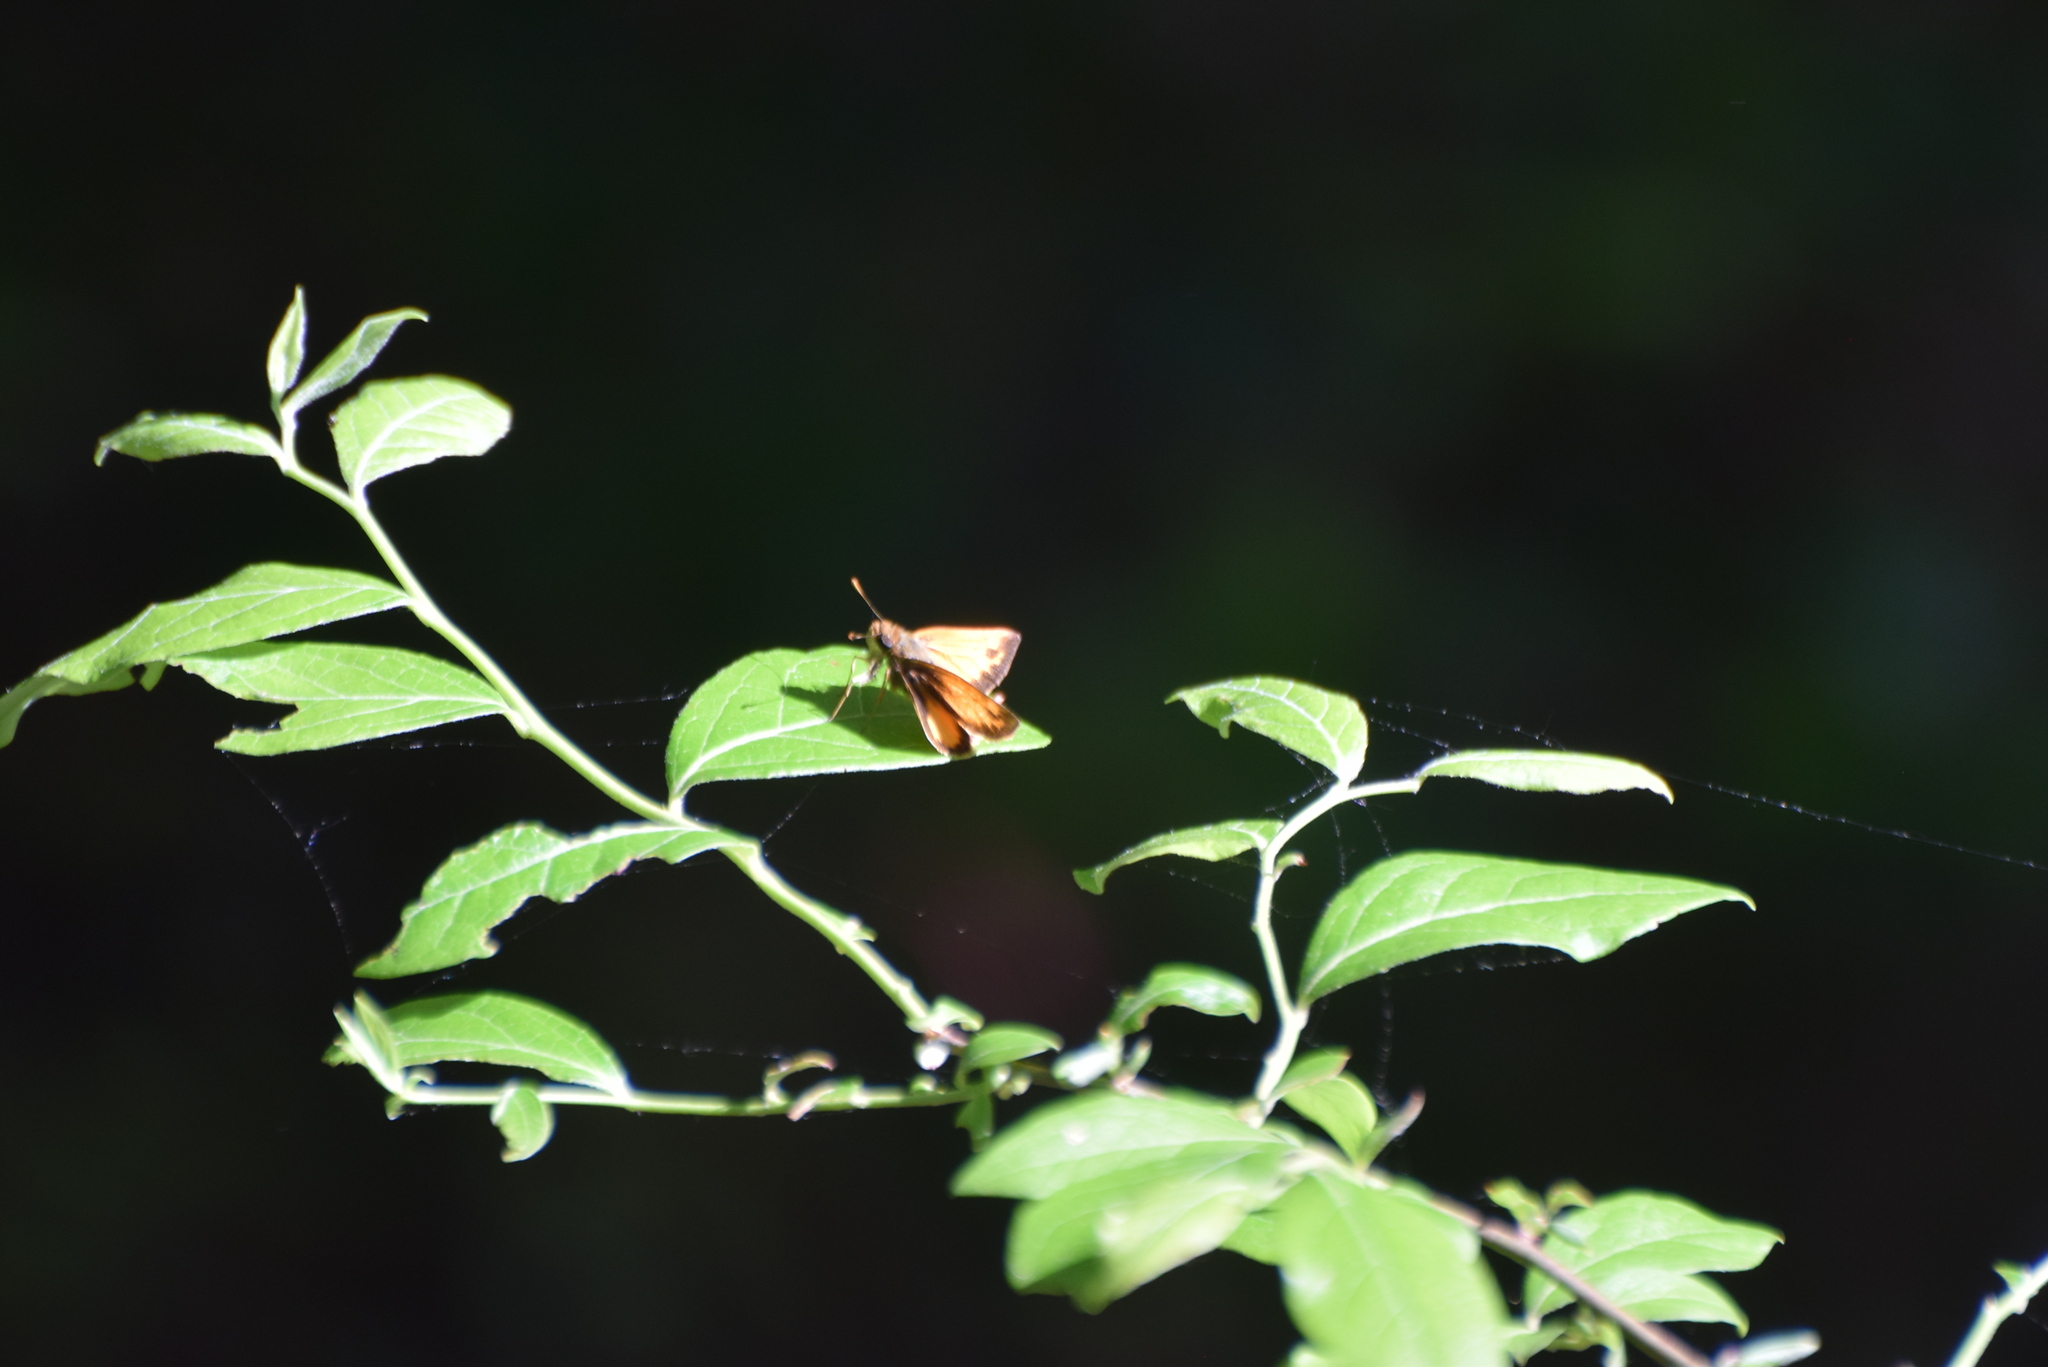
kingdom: Animalia
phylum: Arthropoda
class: Insecta
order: Lepidoptera
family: Hesperiidae
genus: Lon
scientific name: Lon zabulon
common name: Zabulon skipper
